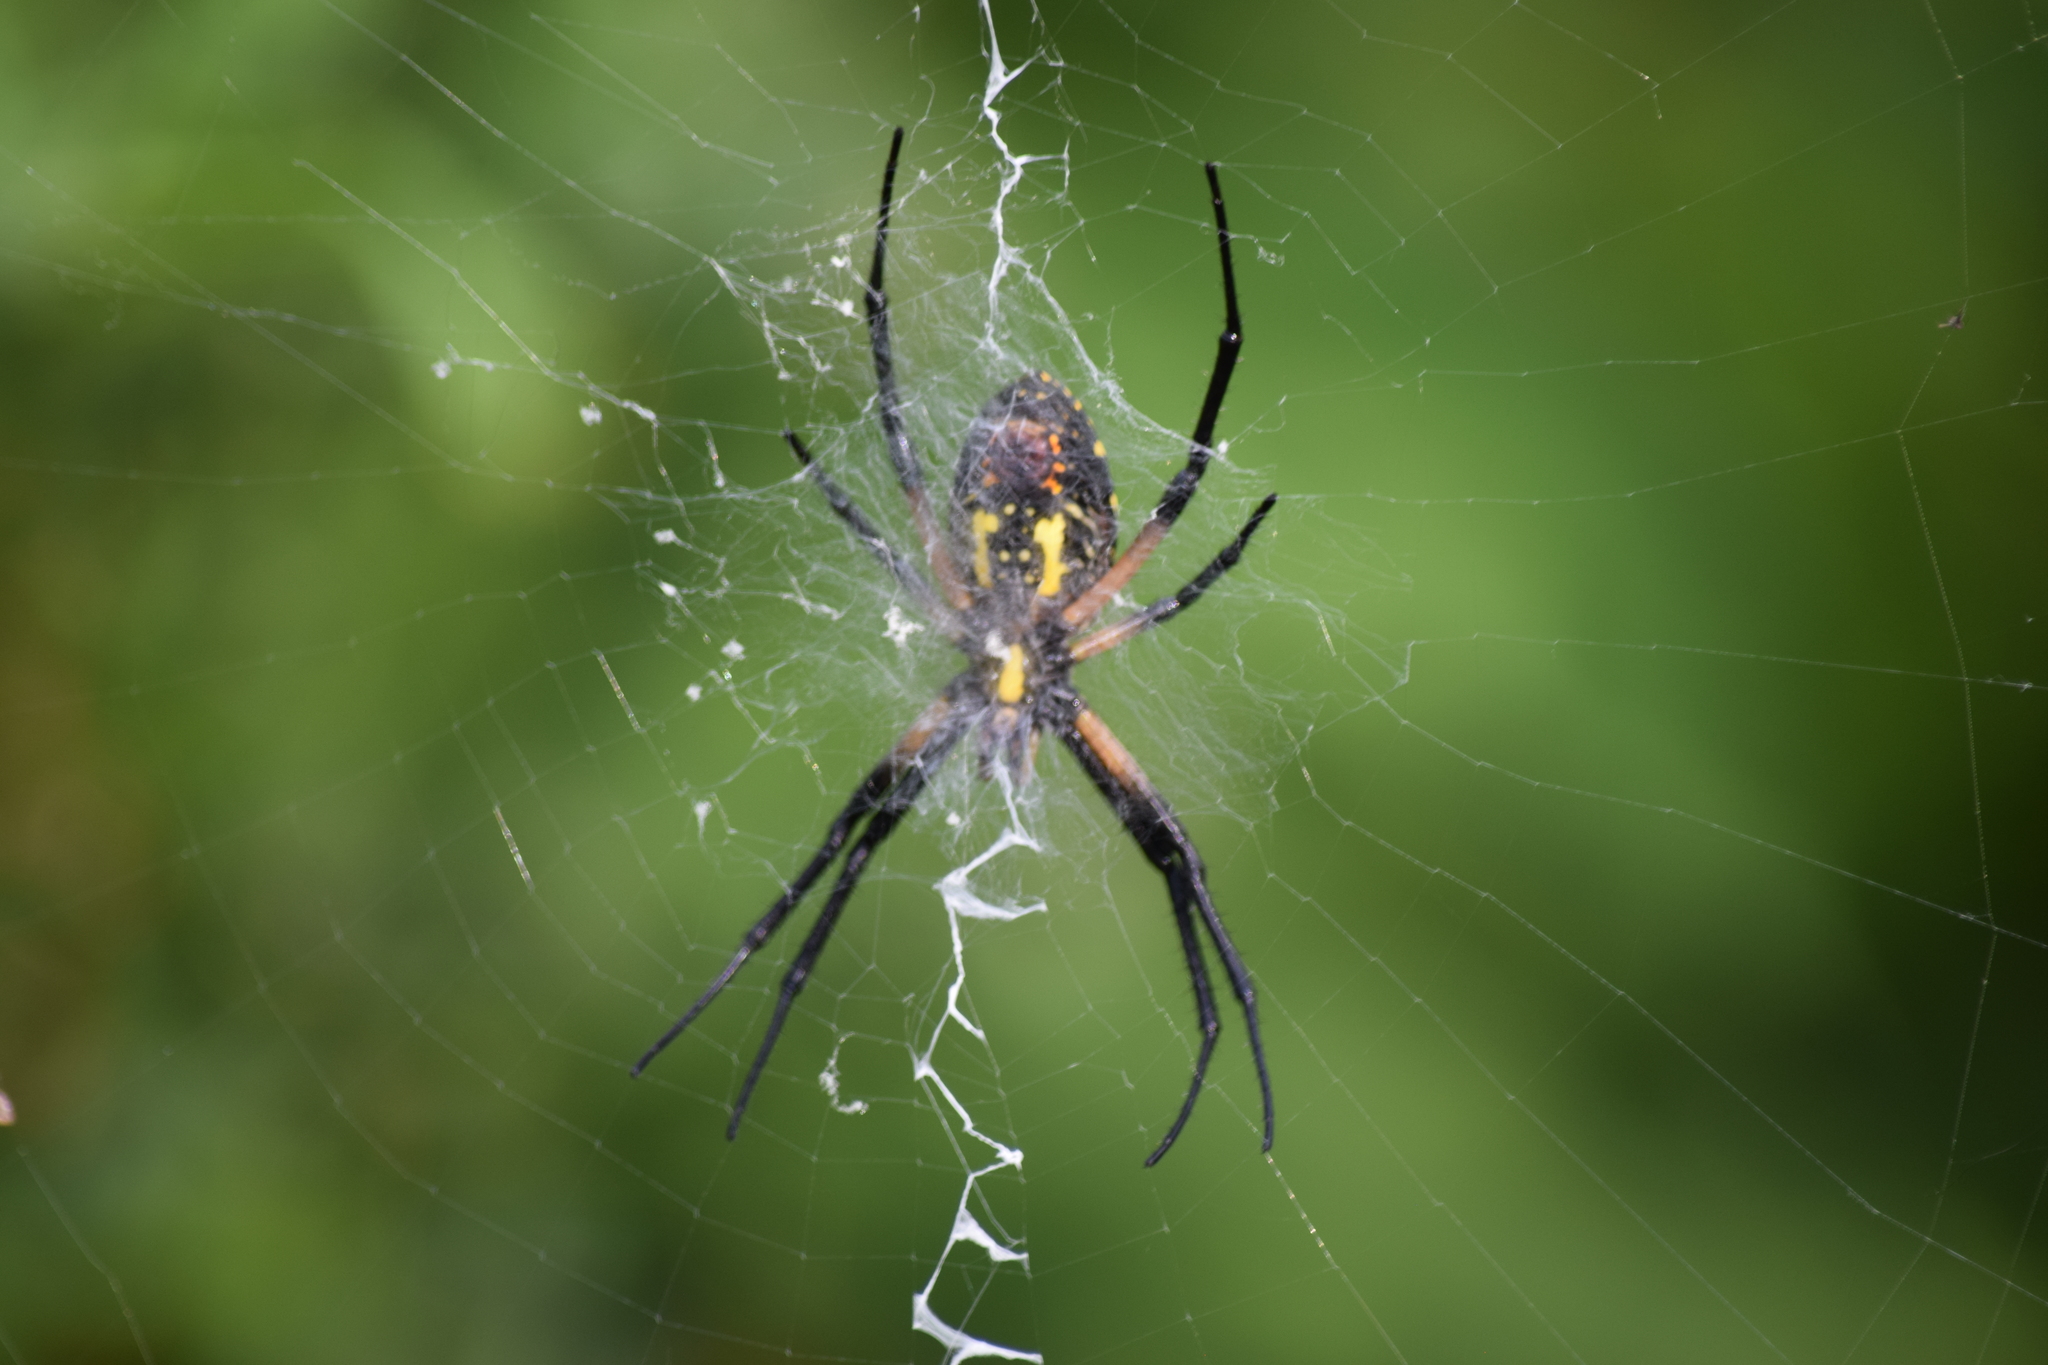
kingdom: Animalia
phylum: Arthropoda
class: Arachnida
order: Araneae
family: Araneidae
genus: Argiope
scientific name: Argiope aurantia
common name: Orb weavers
